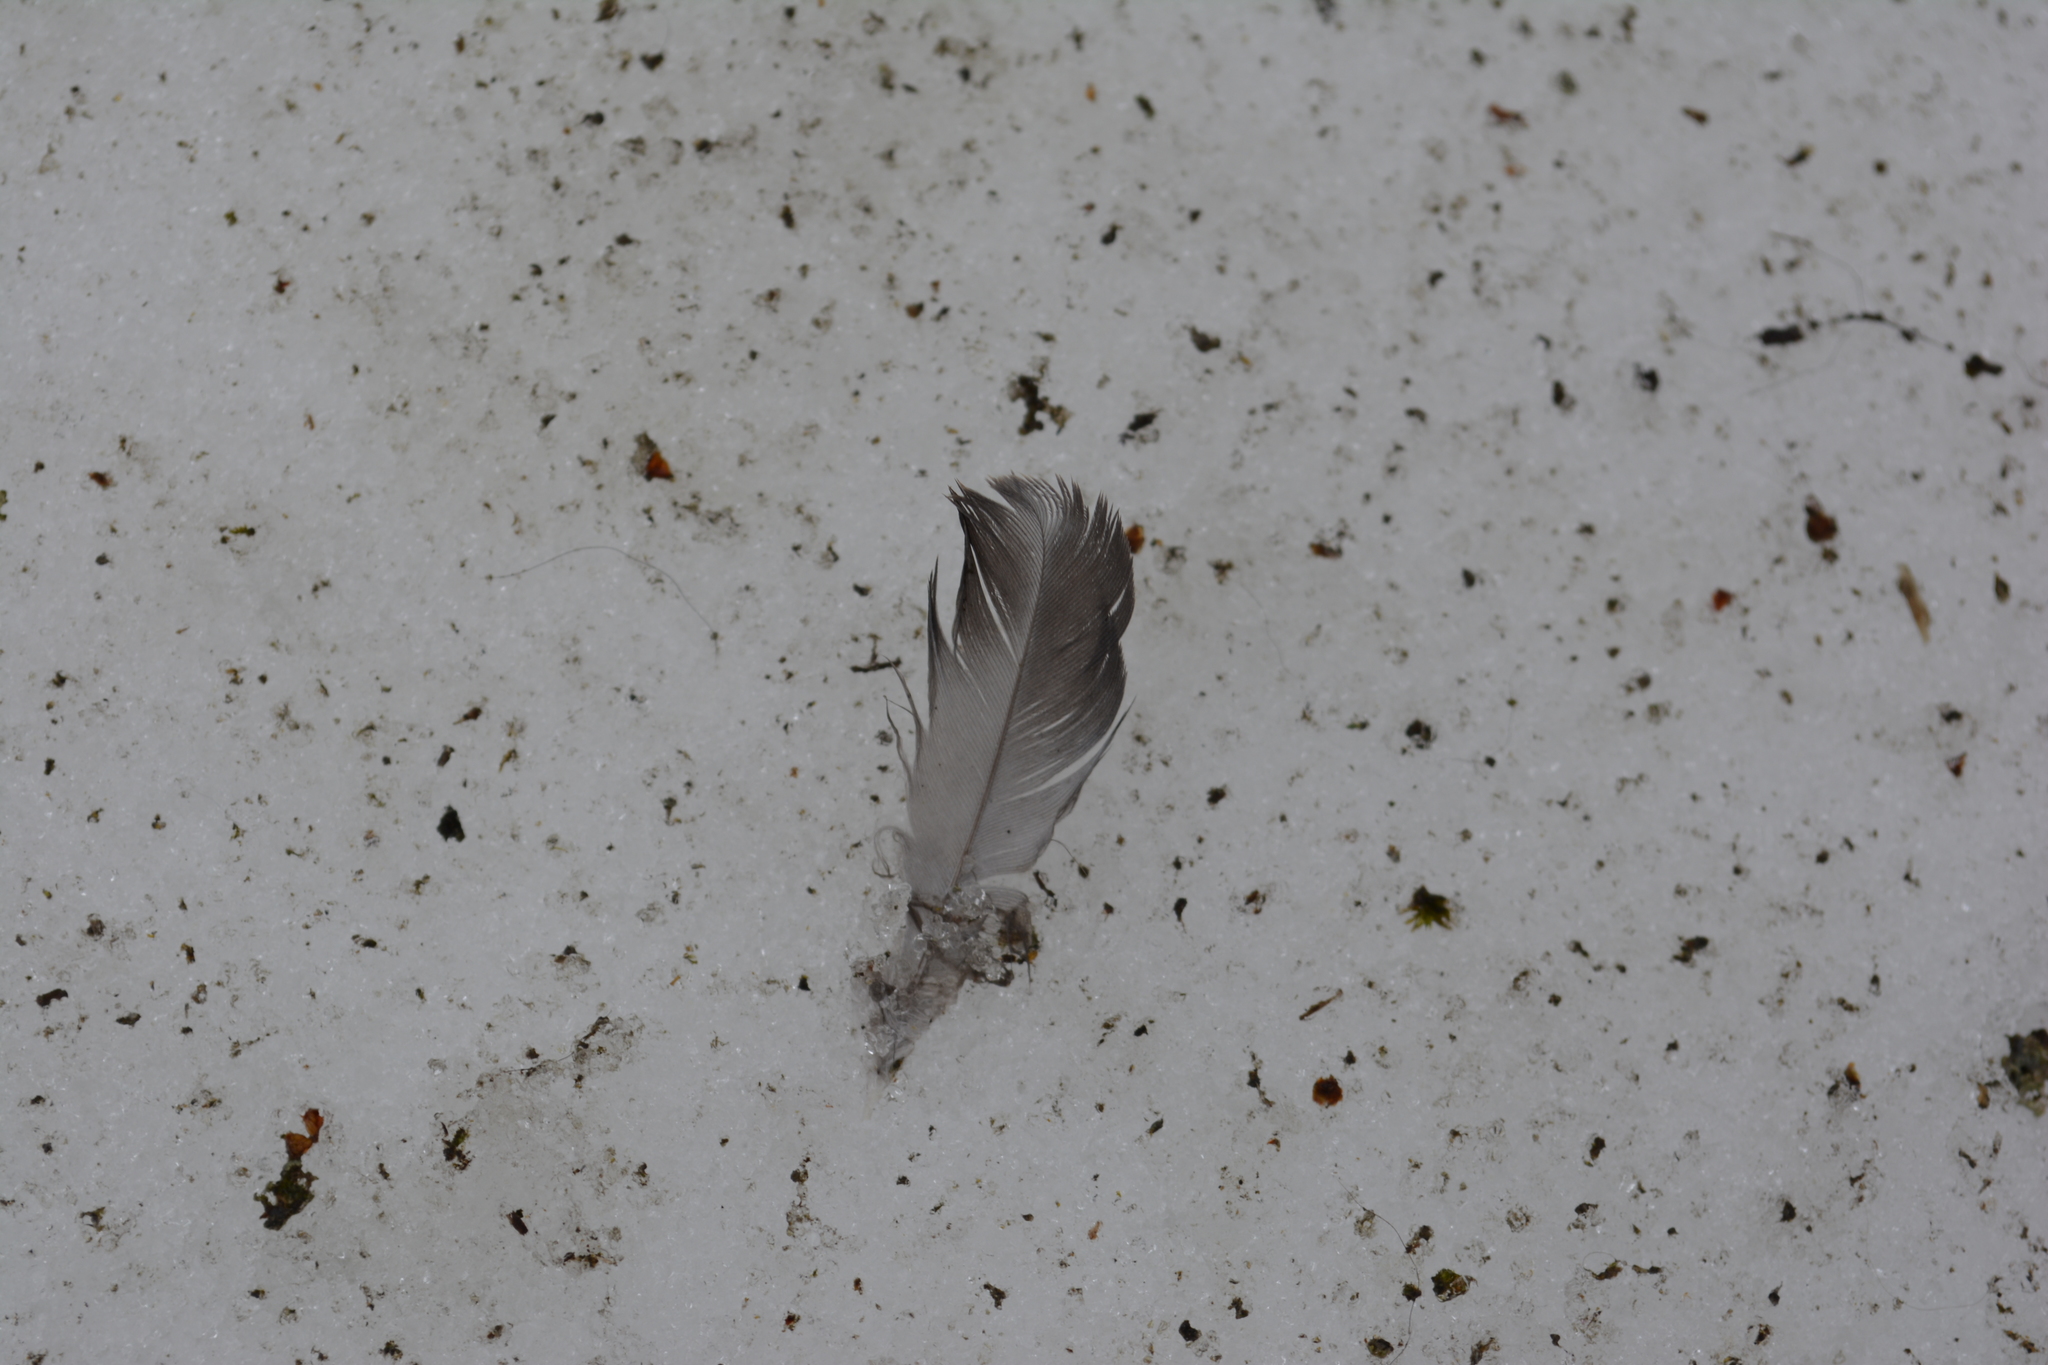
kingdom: Animalia
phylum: Chordata
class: Aves
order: Columbiformes
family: Columbidae
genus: Columba
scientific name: Columba livia
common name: Rock pigeon
